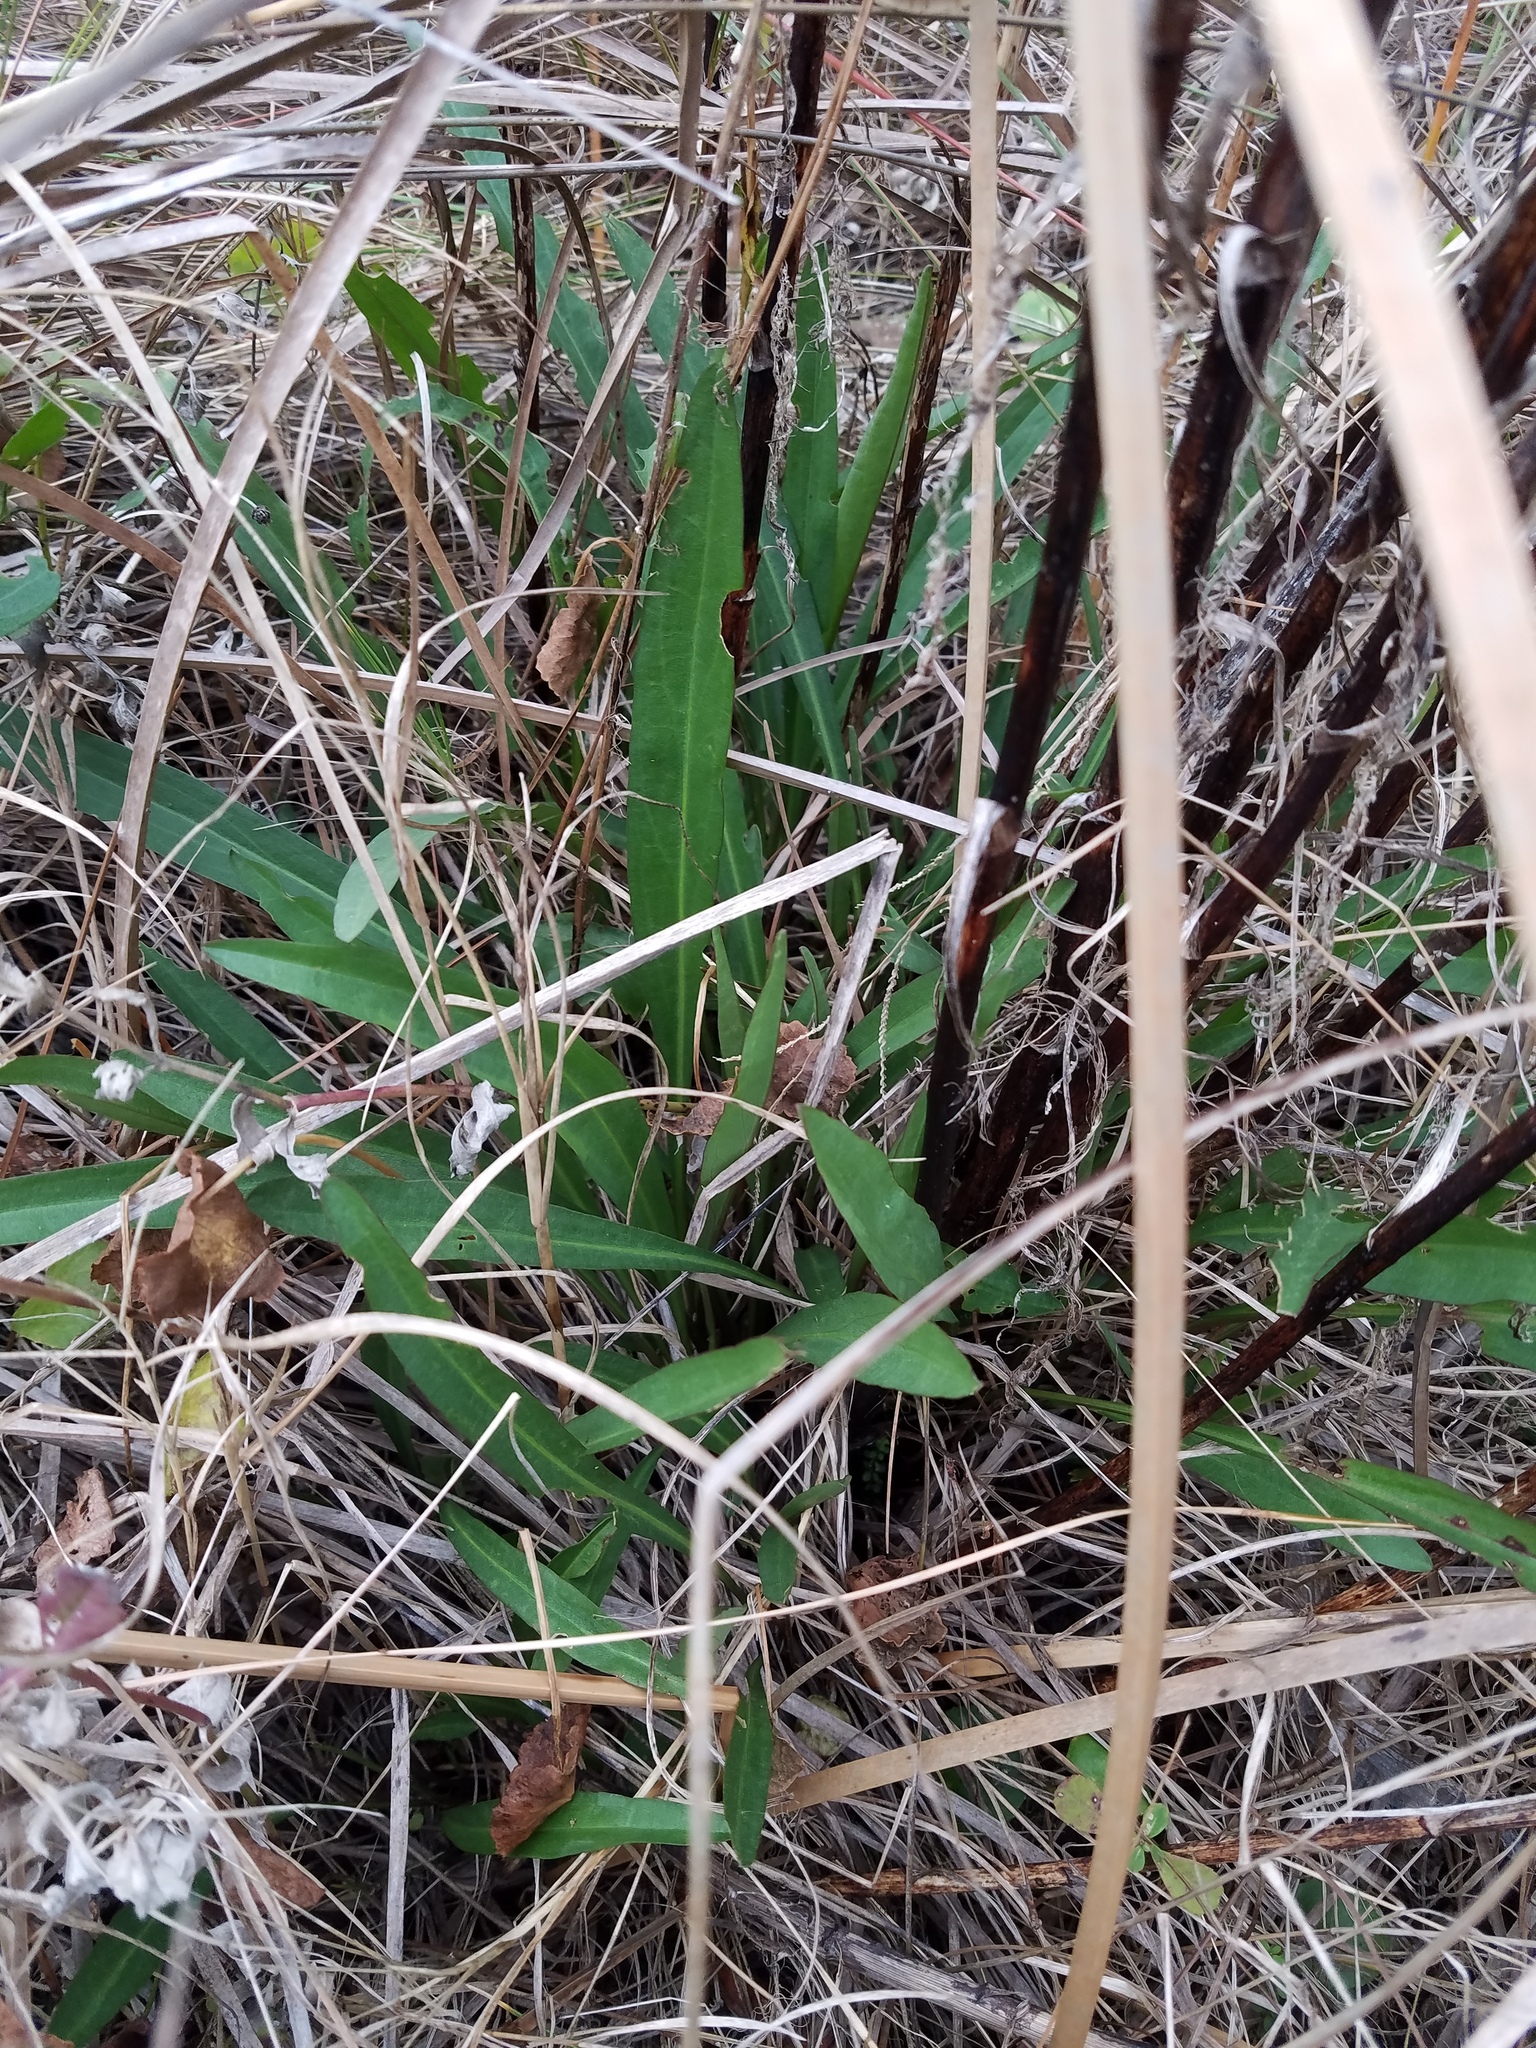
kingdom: Plantae
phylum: Tracheophyta
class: Magnoliopsida
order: Asterales
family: Asteraceae
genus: Solidago
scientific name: Solidago mexicana
